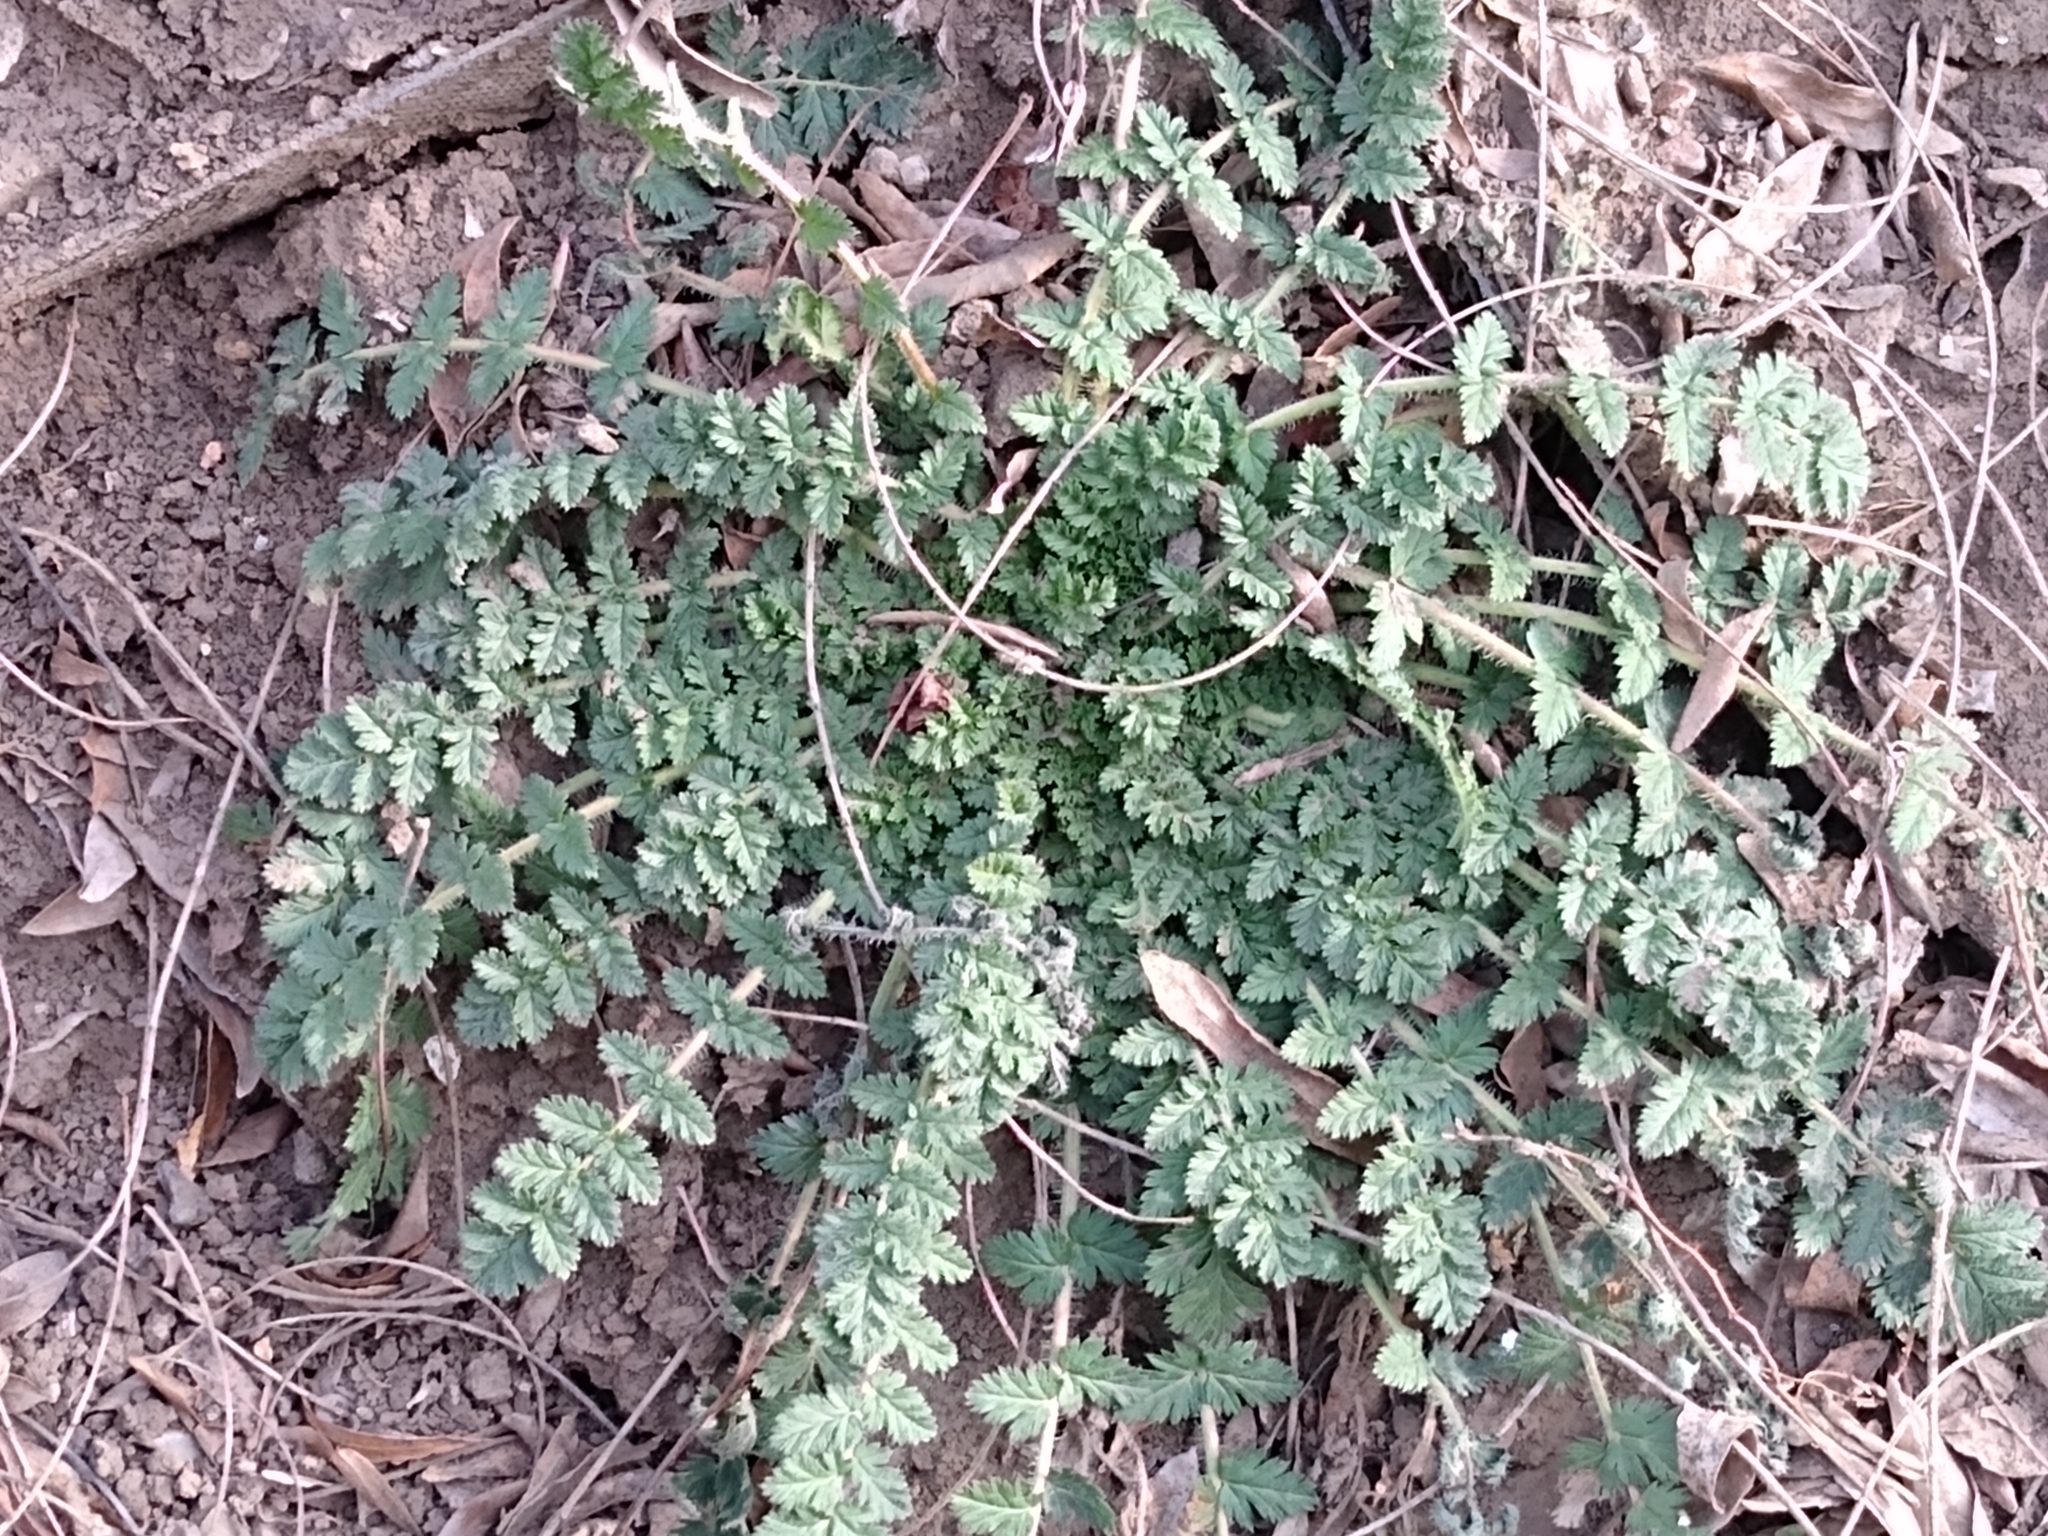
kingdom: Plantae
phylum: Tracheophyta
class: Magnoliopsida
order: Geraniales
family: Geraniaceae
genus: Erodium
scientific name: Erodium cicutarium
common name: Common stork's-bill
